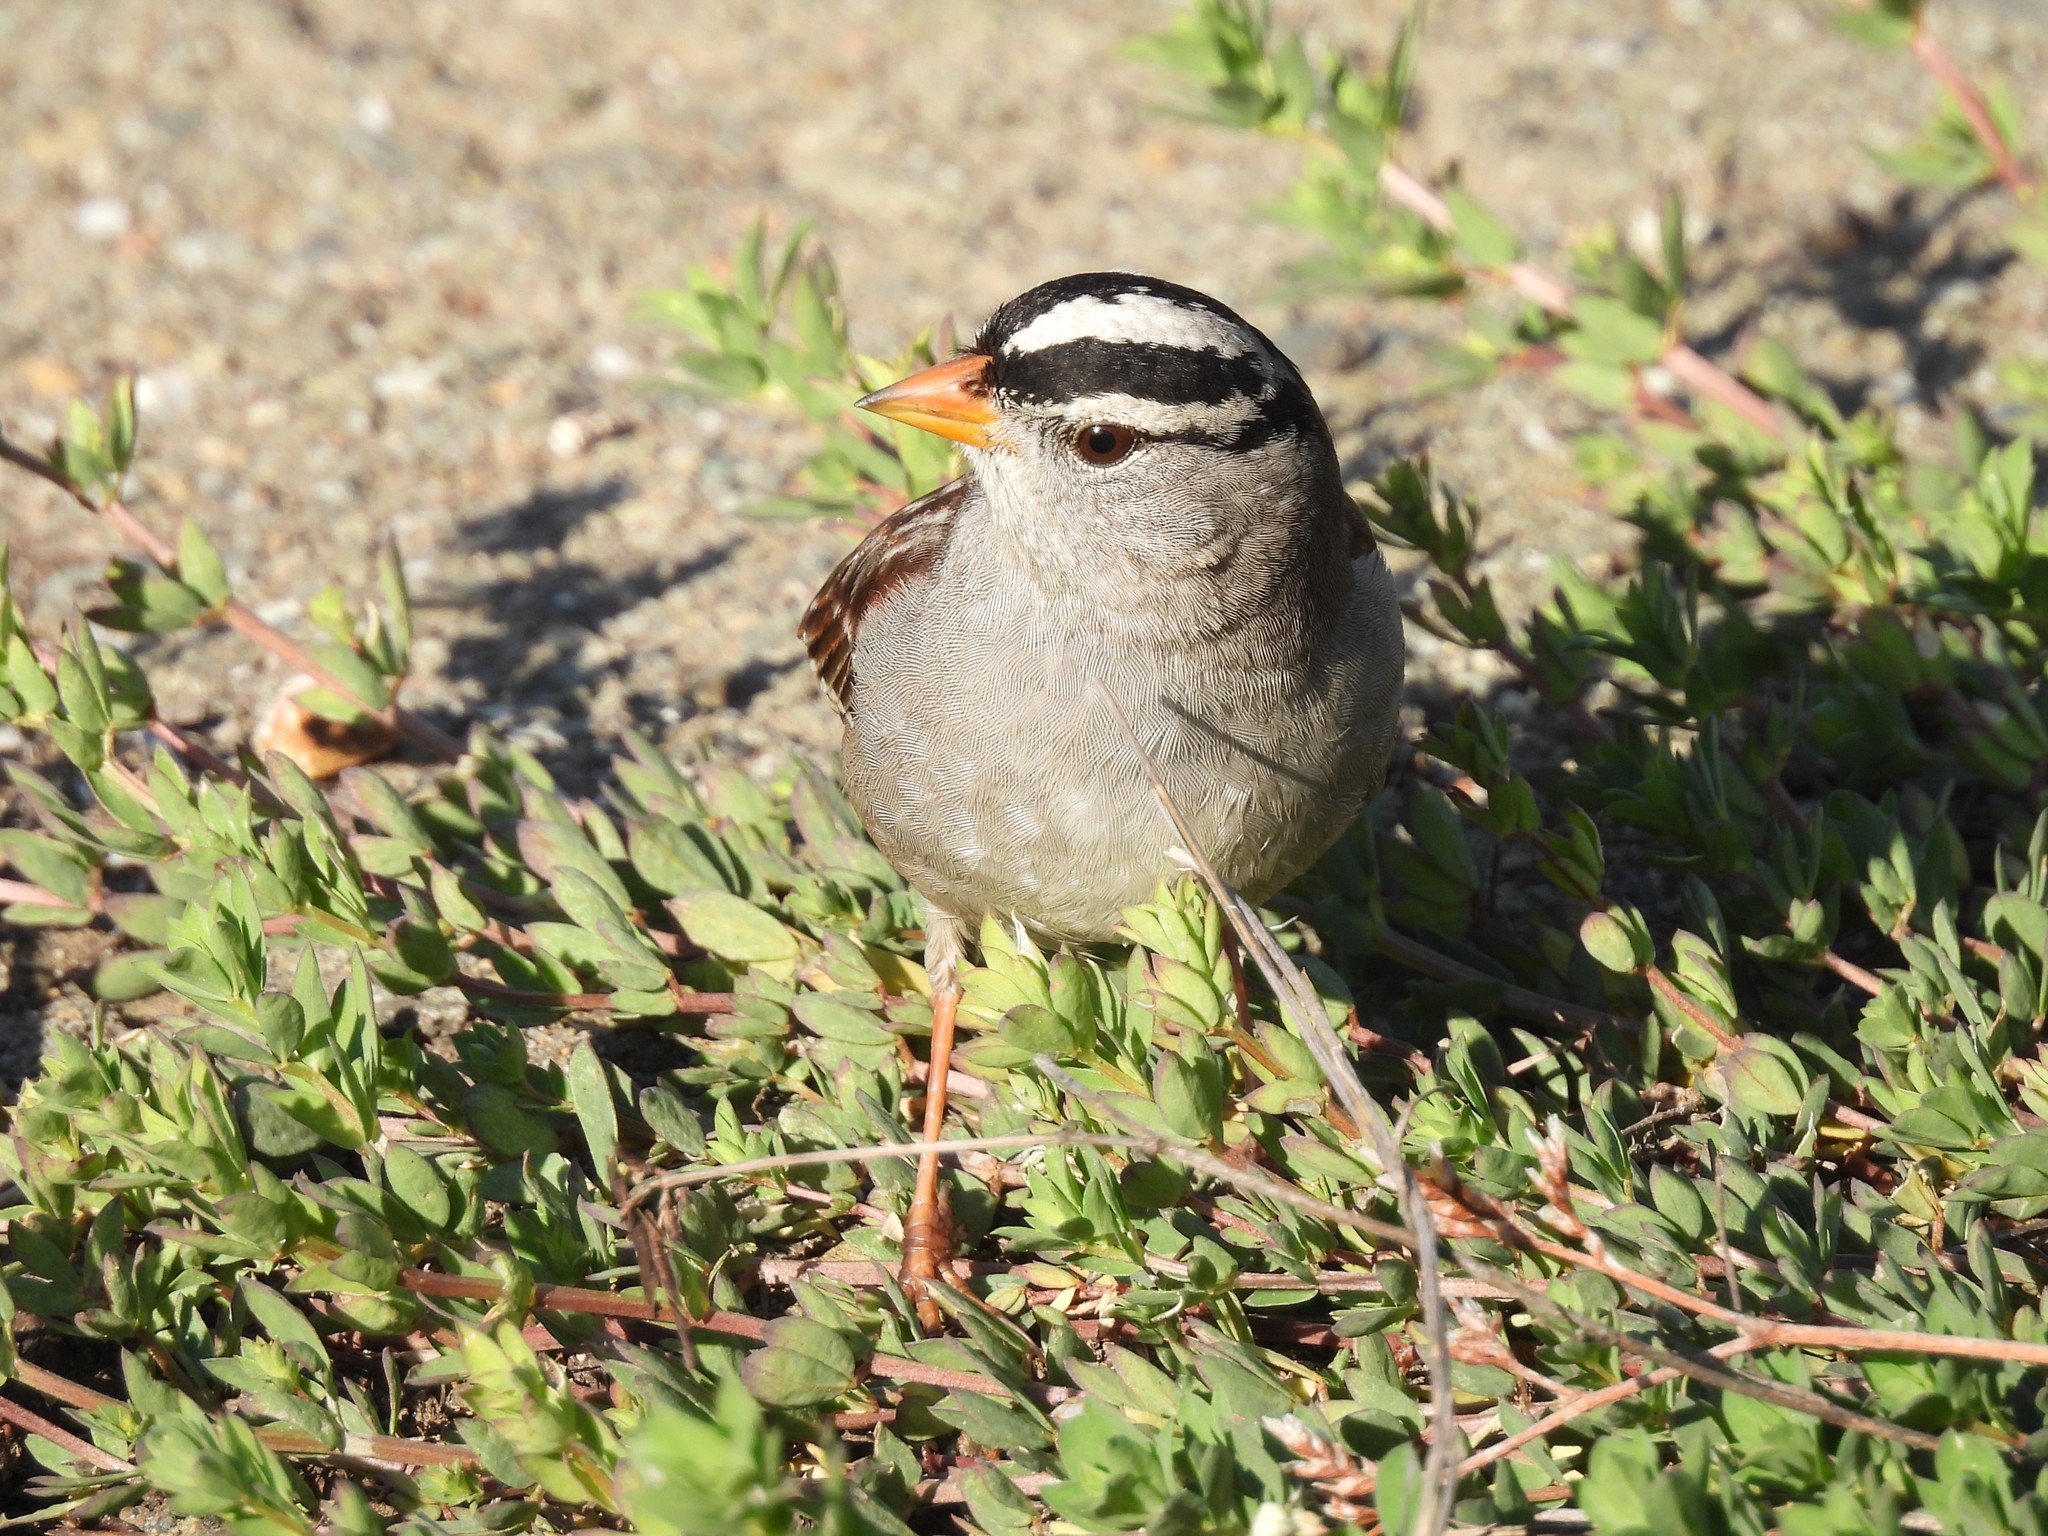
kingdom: Animalia
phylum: Chordata
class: Aves
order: Passeriformes
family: Passerellidae
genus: Zonotrichia
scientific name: Zonotrichia leucophrys
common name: White-crowned sparrow
